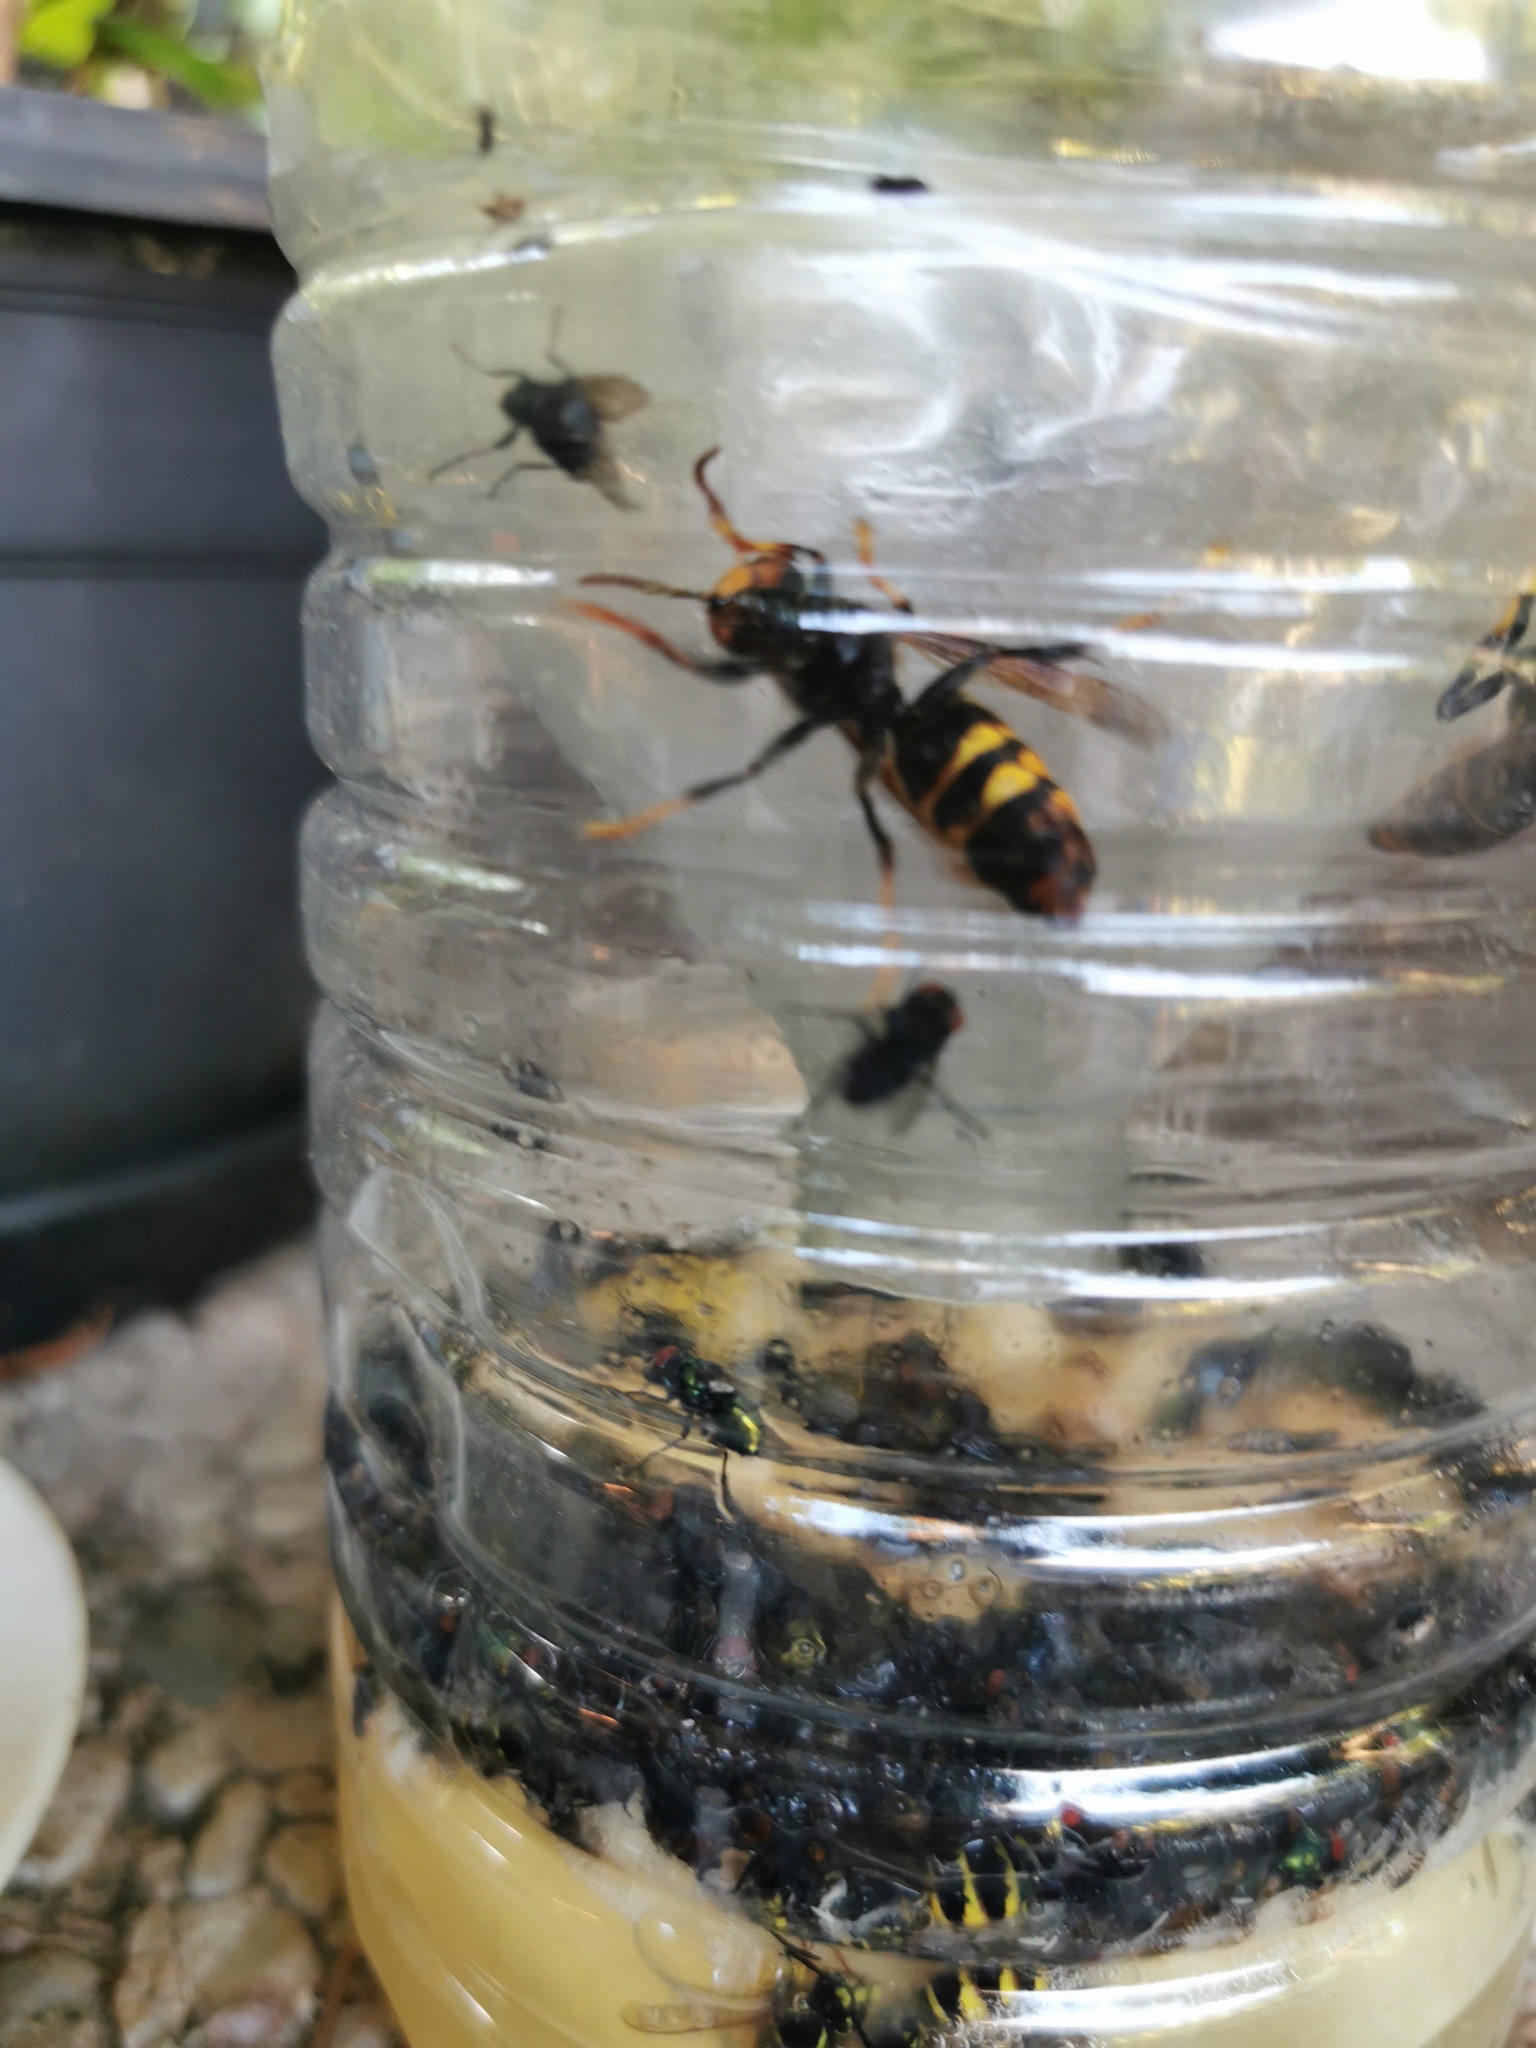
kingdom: Animalia
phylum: Arthropoda
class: Insecta
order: Hymenoptera
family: Vespidae
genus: Vespa
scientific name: Vespa velutina
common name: Asian hornet
